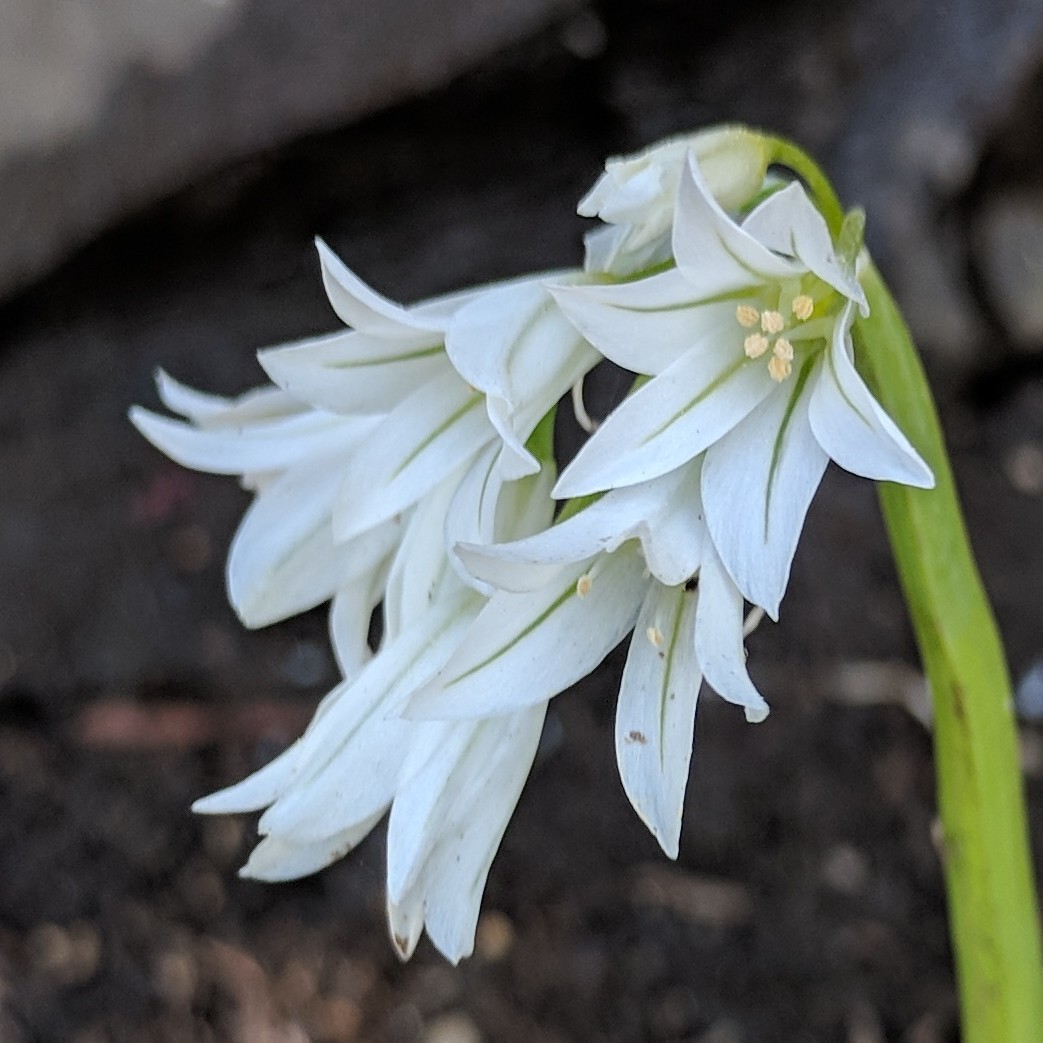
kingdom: Plantae
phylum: Tracheophyta
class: Liliopsida
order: Asparagales
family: Amaryllidaceae
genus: Allium
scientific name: Allium triquetrum
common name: Three-cornered garlic
